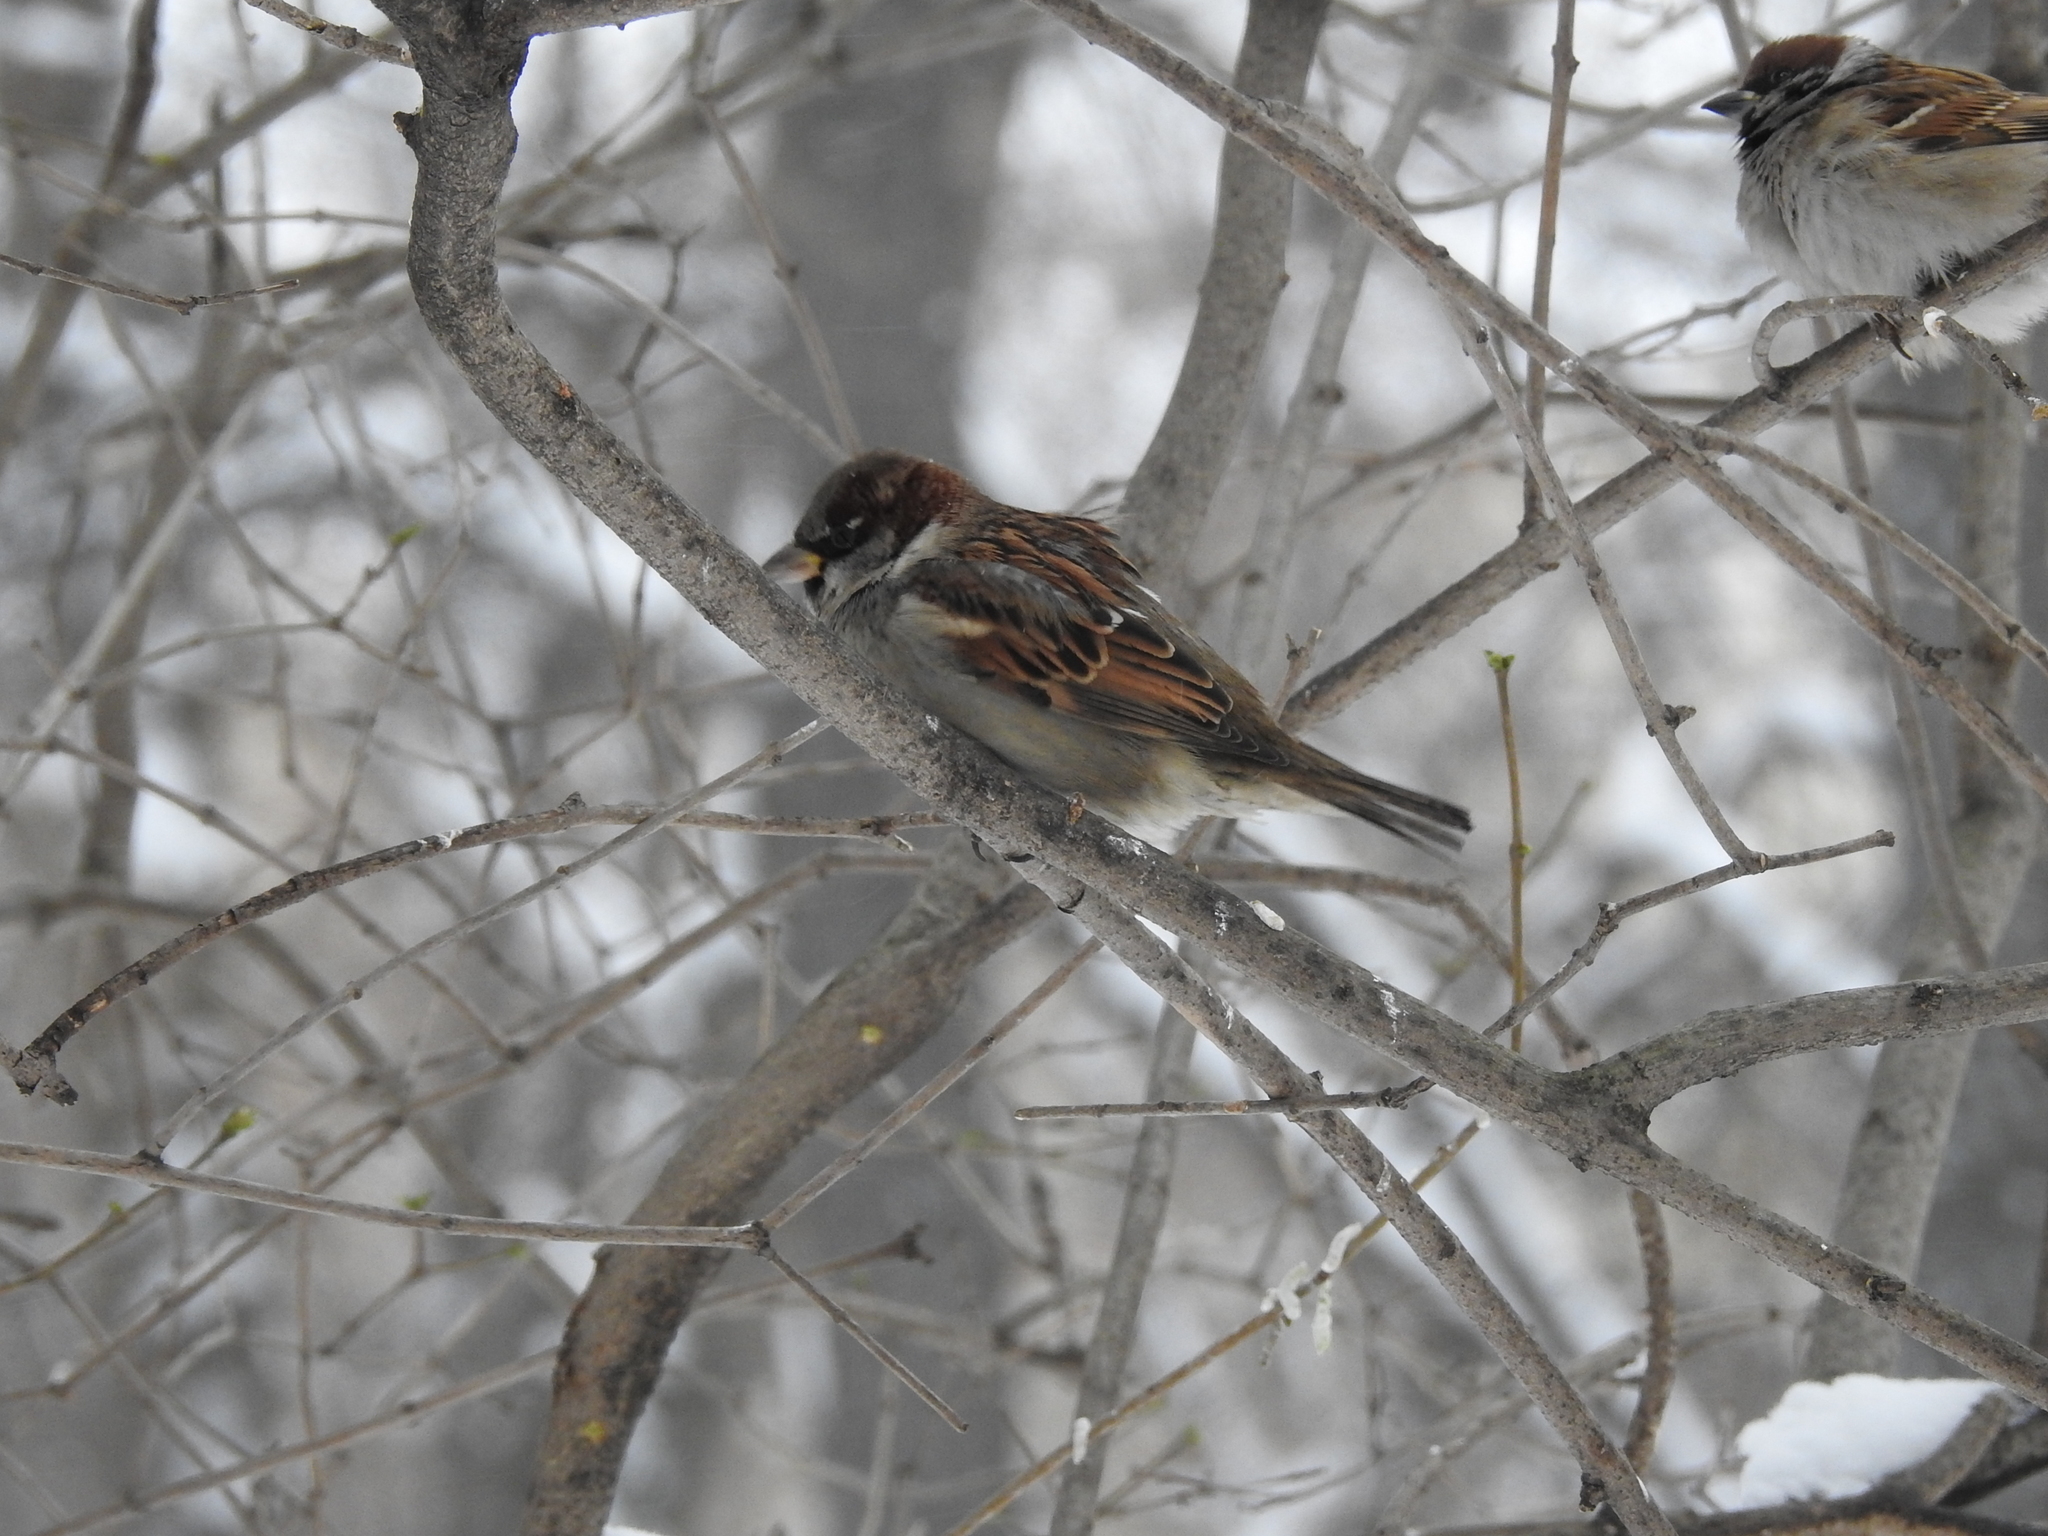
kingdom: Animalia
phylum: Chordata
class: Aves
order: Passeriformes
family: Passeridae
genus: Passer
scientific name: Passer domesticus
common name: House sparrow
